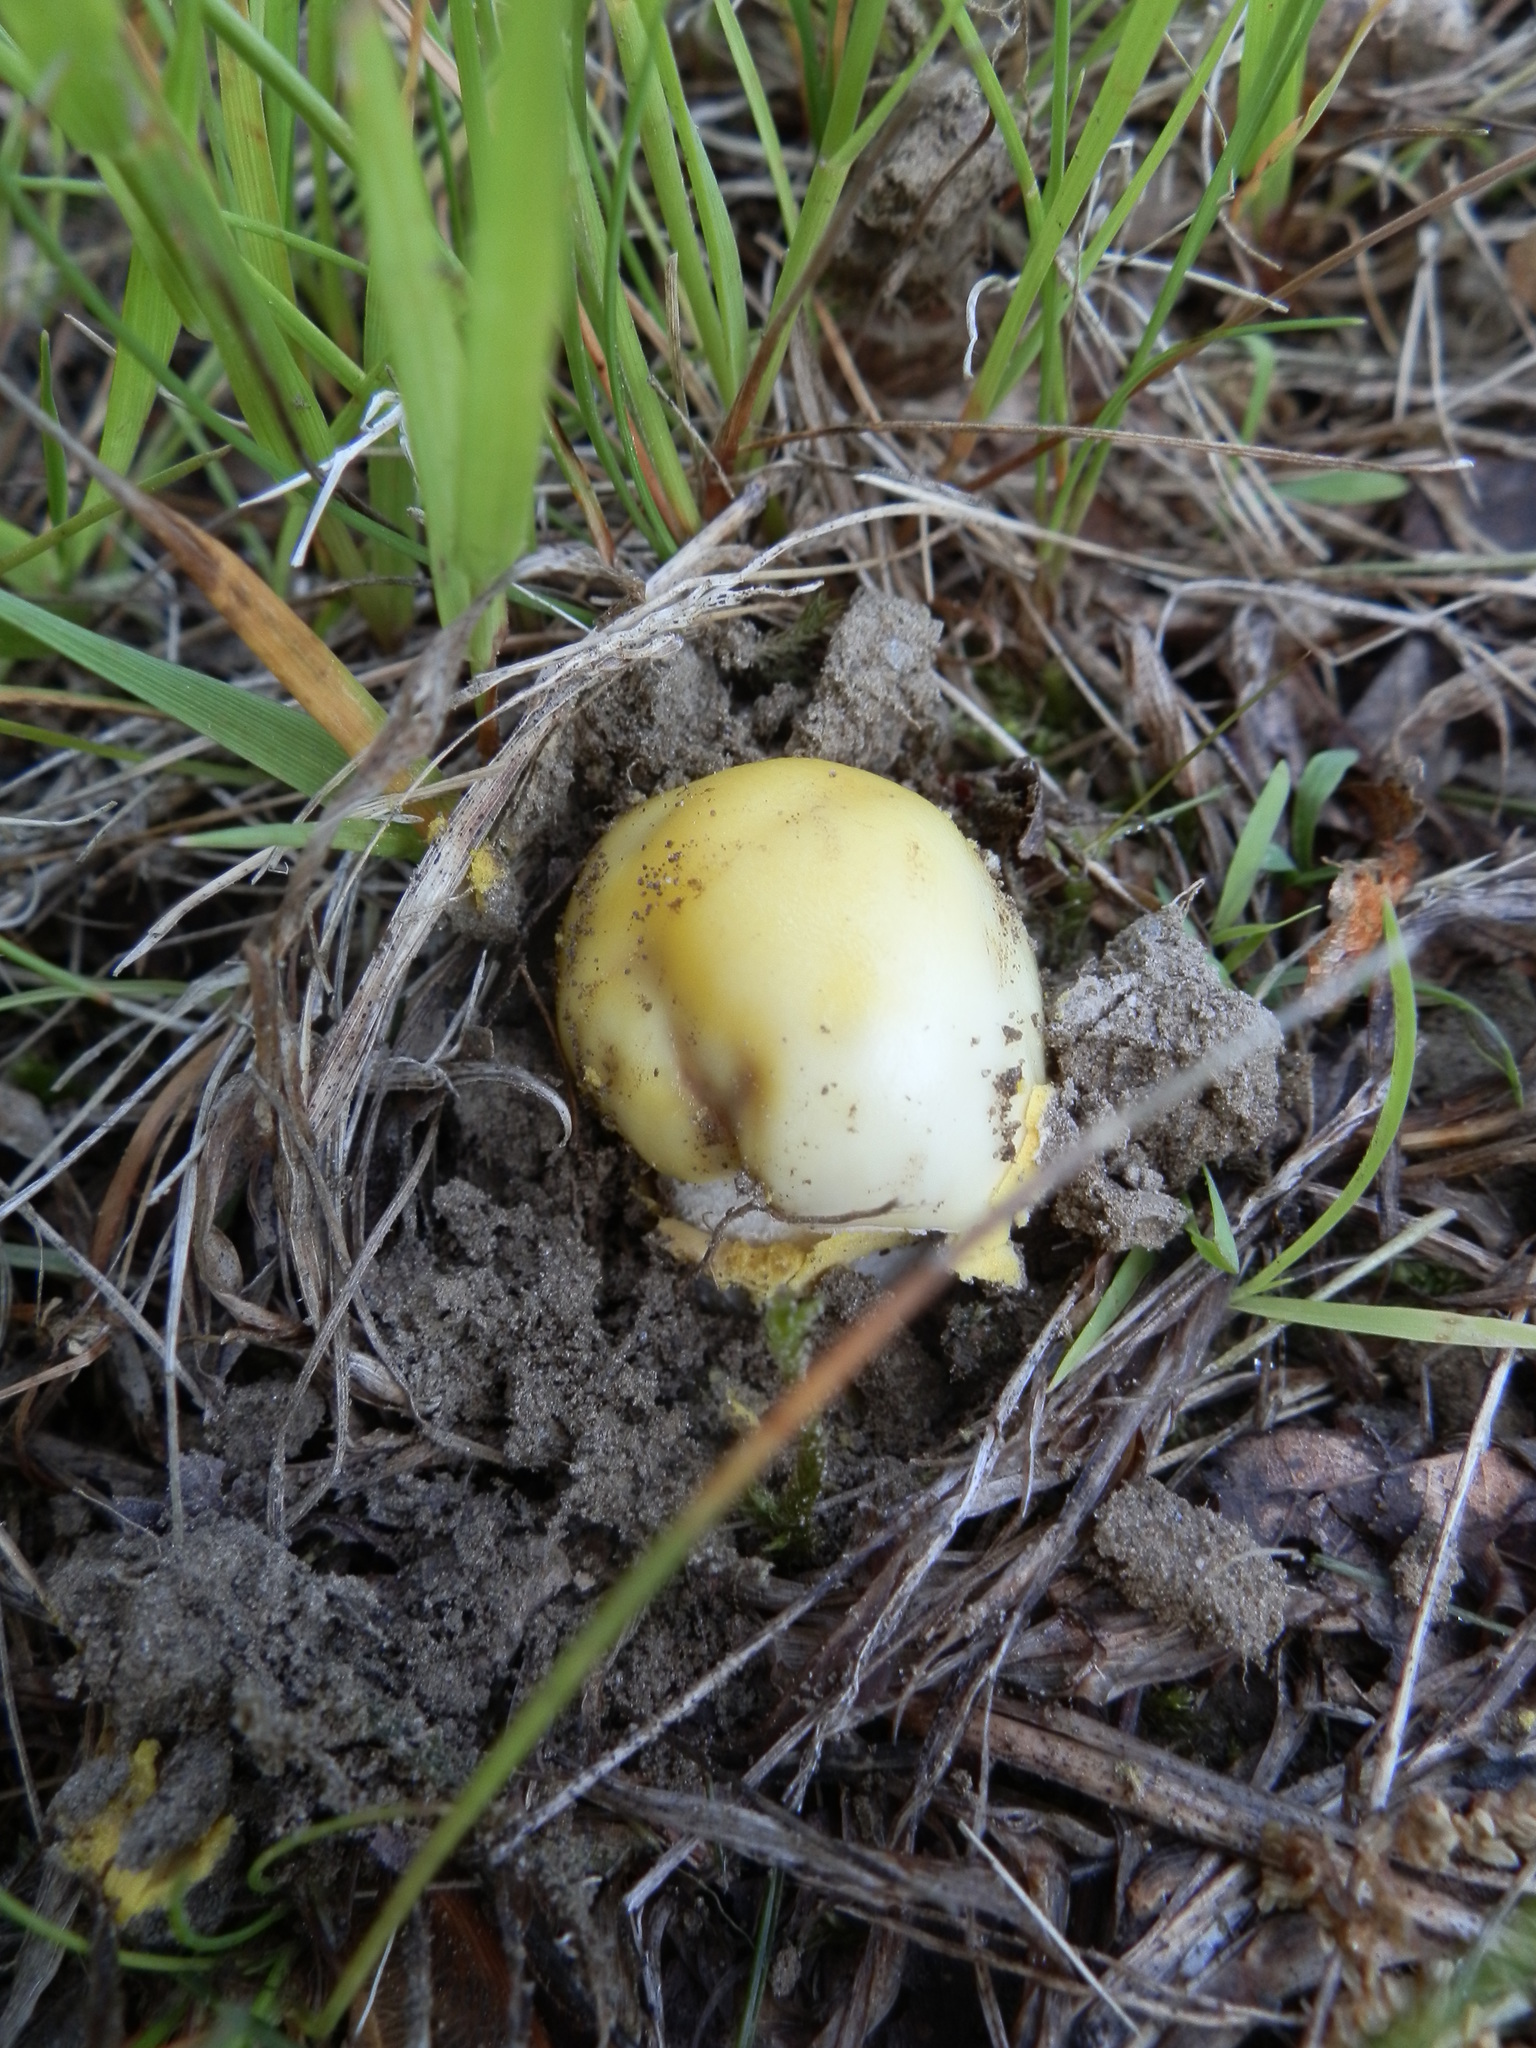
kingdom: Fungi
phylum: Basidiomycota
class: Agaricomycetes
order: Agaricales
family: Amanitaceae
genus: Amanita
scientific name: Amanita flavorubens
